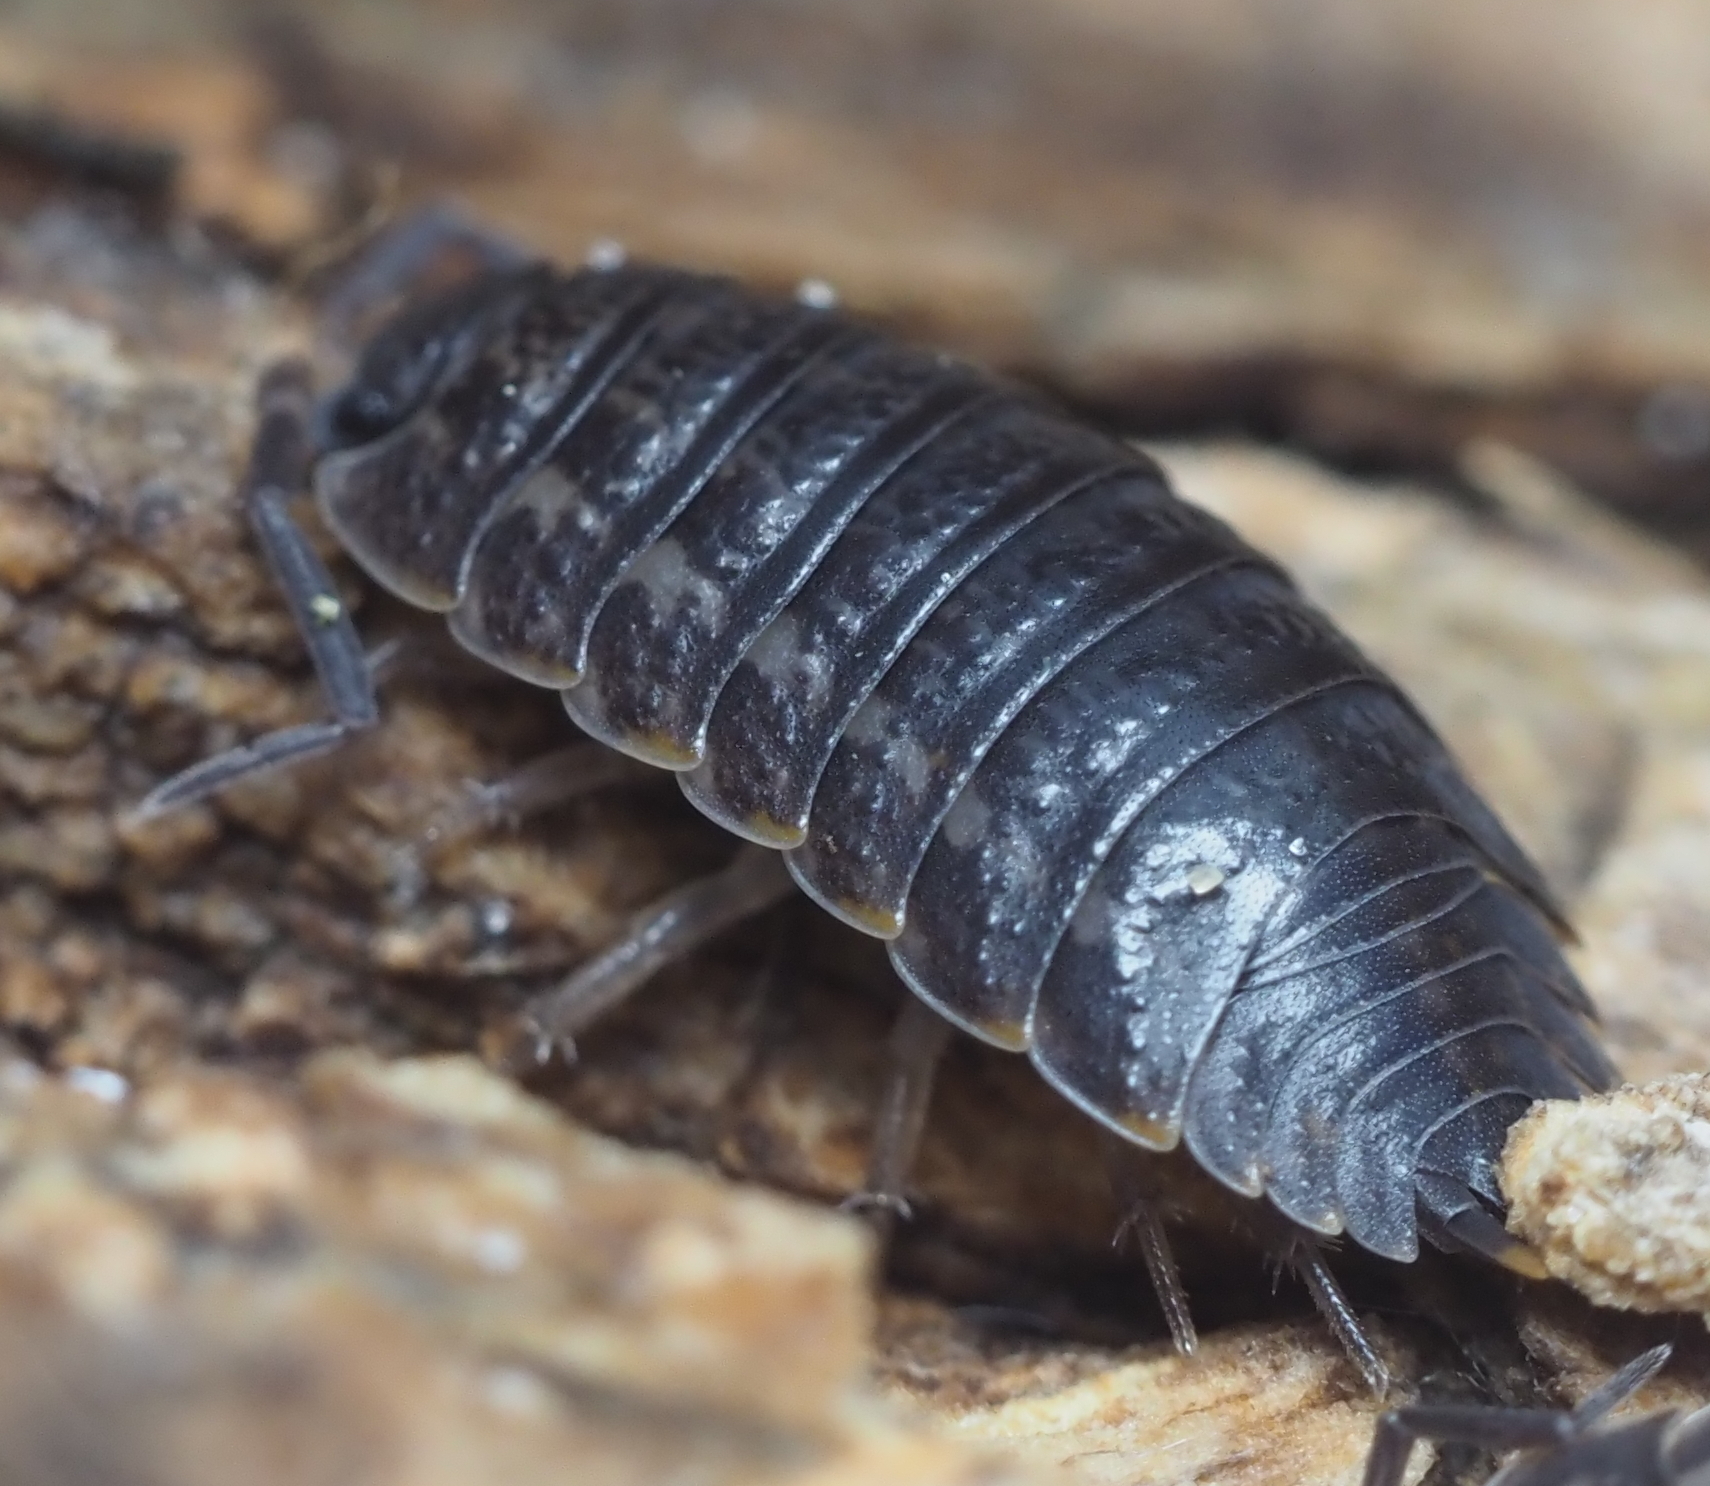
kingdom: Animalia
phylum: Arthropoda
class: Malacostraca
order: Isopoda
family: Trachelipodidae
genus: Trachelipus
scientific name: Trachelipus rathkii
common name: Isopod
